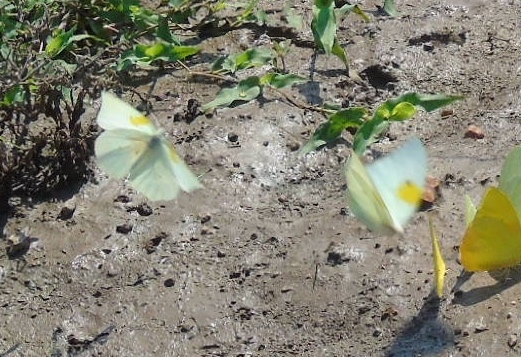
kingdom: Animalia
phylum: Arthropoda
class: Insecta
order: Lepidoptera
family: Pieridae
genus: Anteos
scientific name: Anteos clorinde
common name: White angled sulphur
